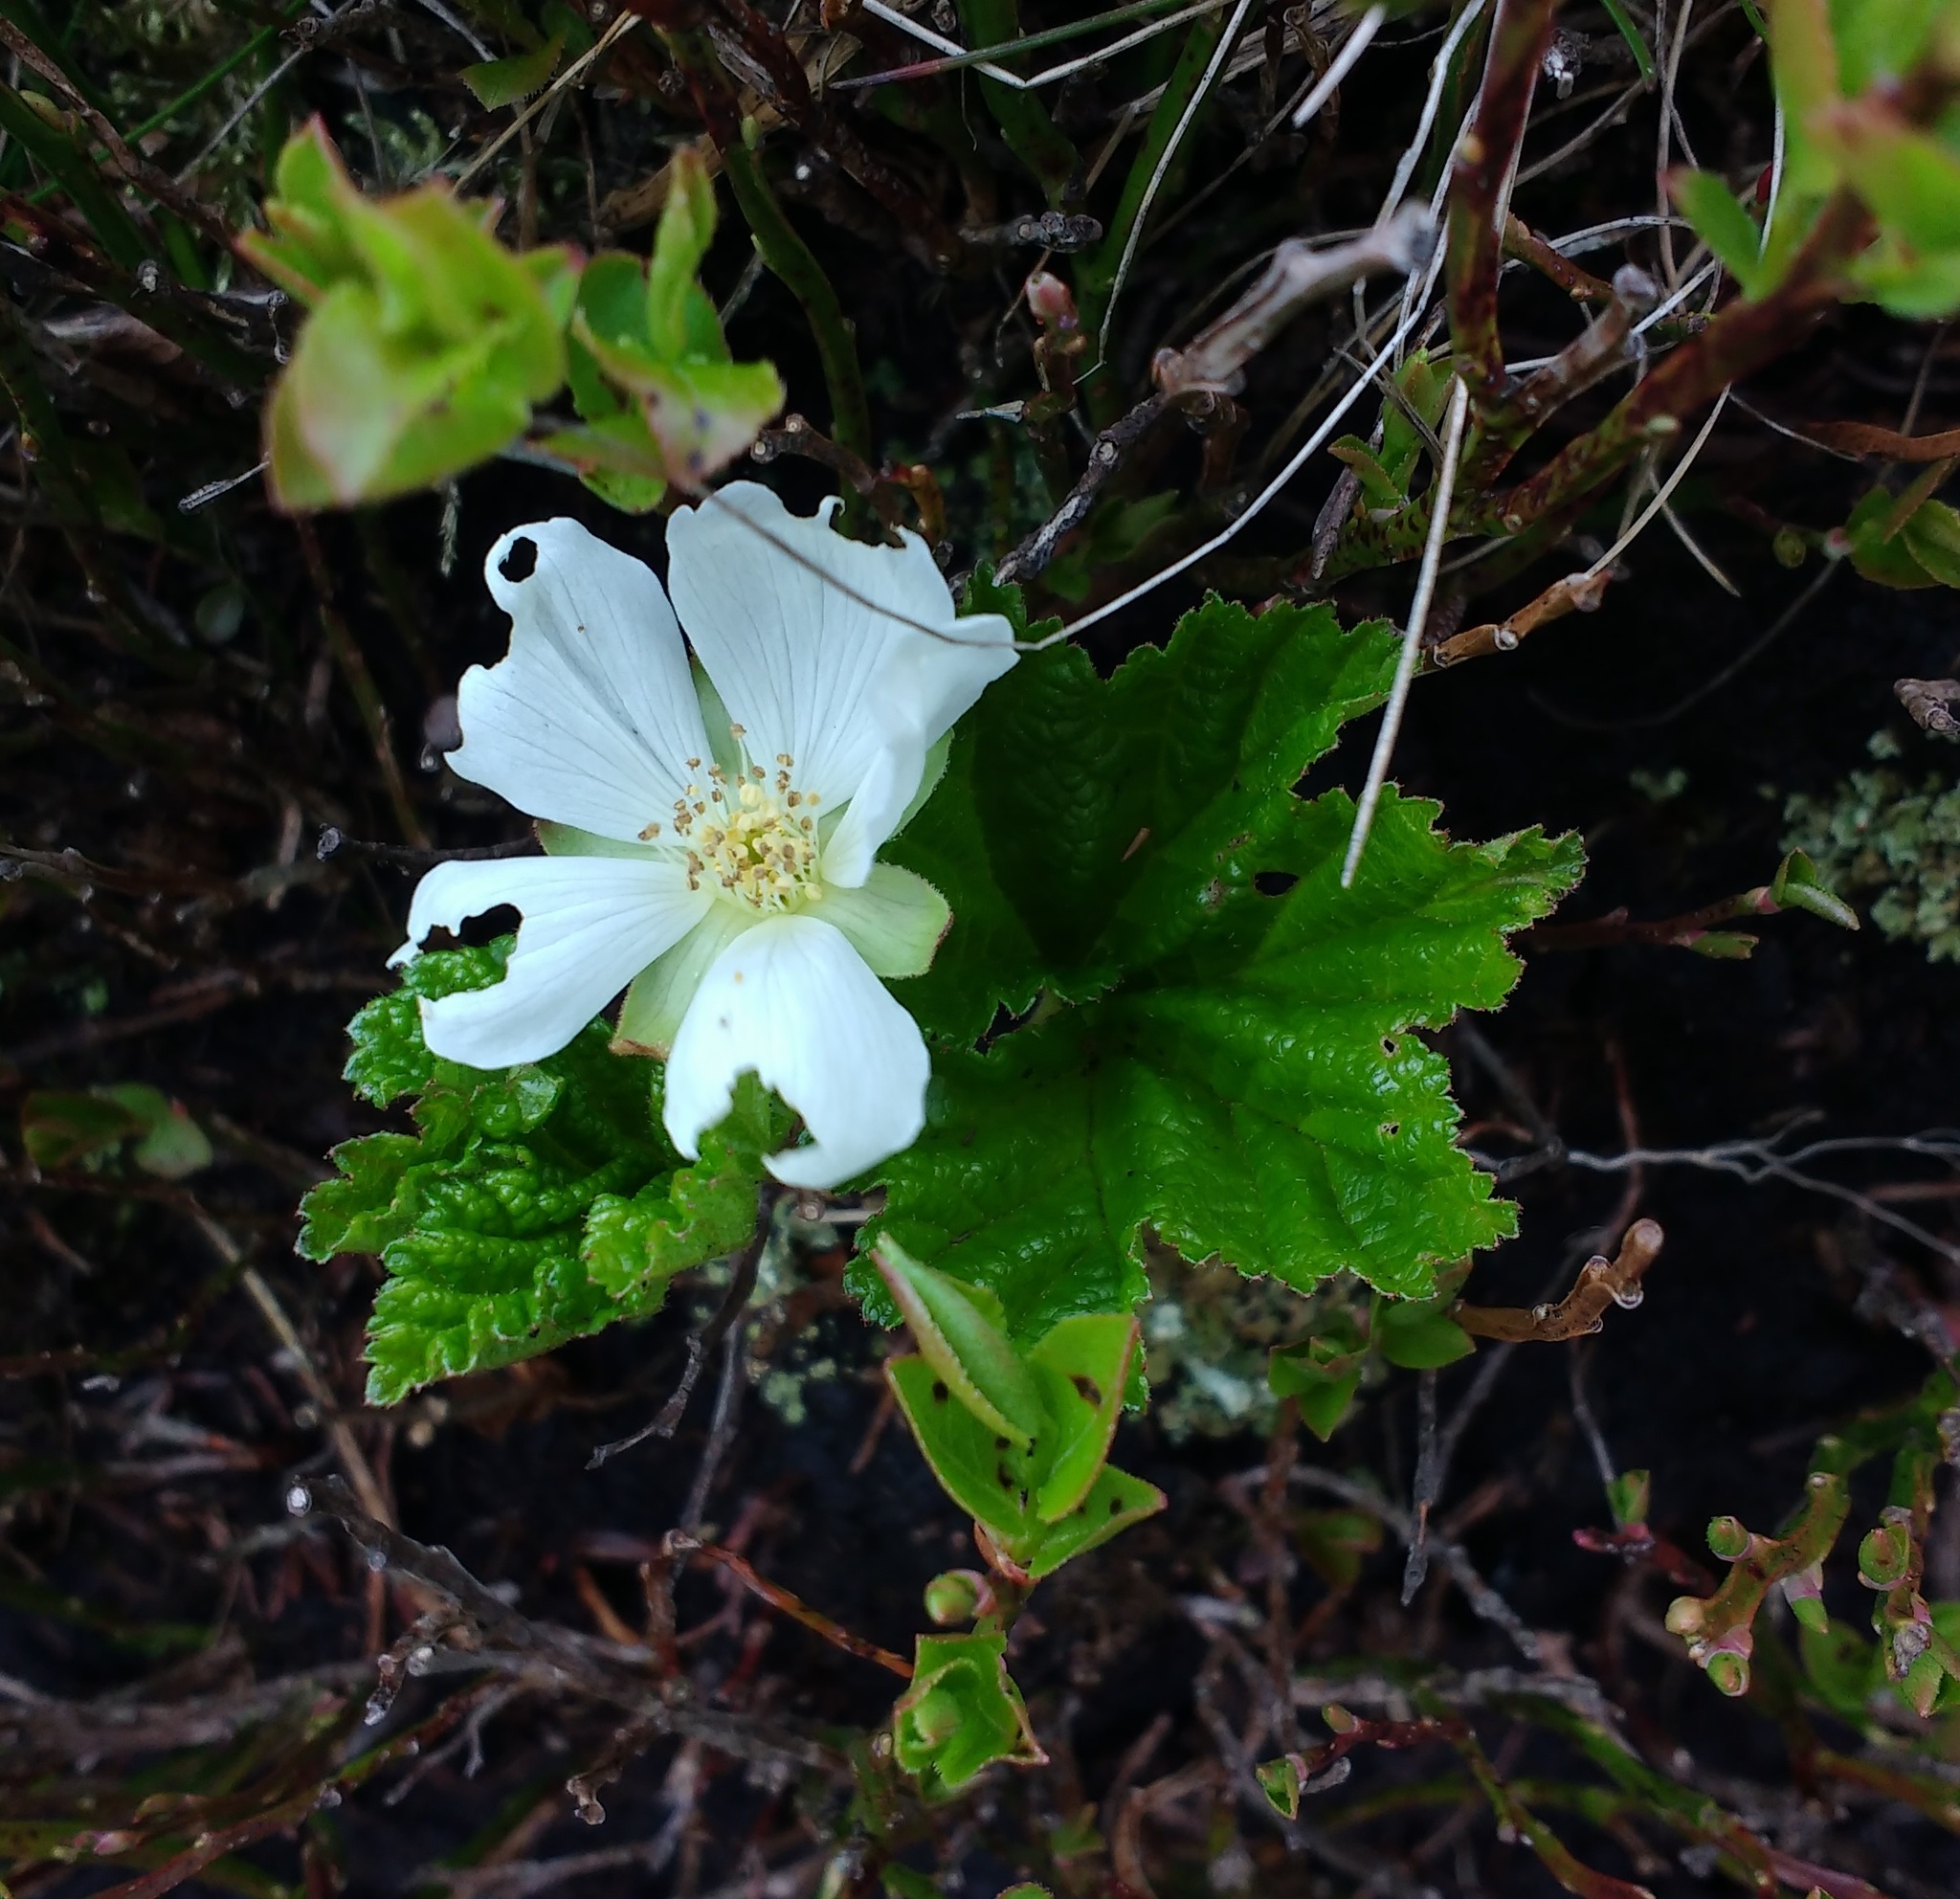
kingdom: Plantae
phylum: Tracheophyta
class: Magnoliopsida
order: Rosales
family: Rosaceae
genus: Rubus
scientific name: Rubus chamaemorus
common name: Cloudberry
